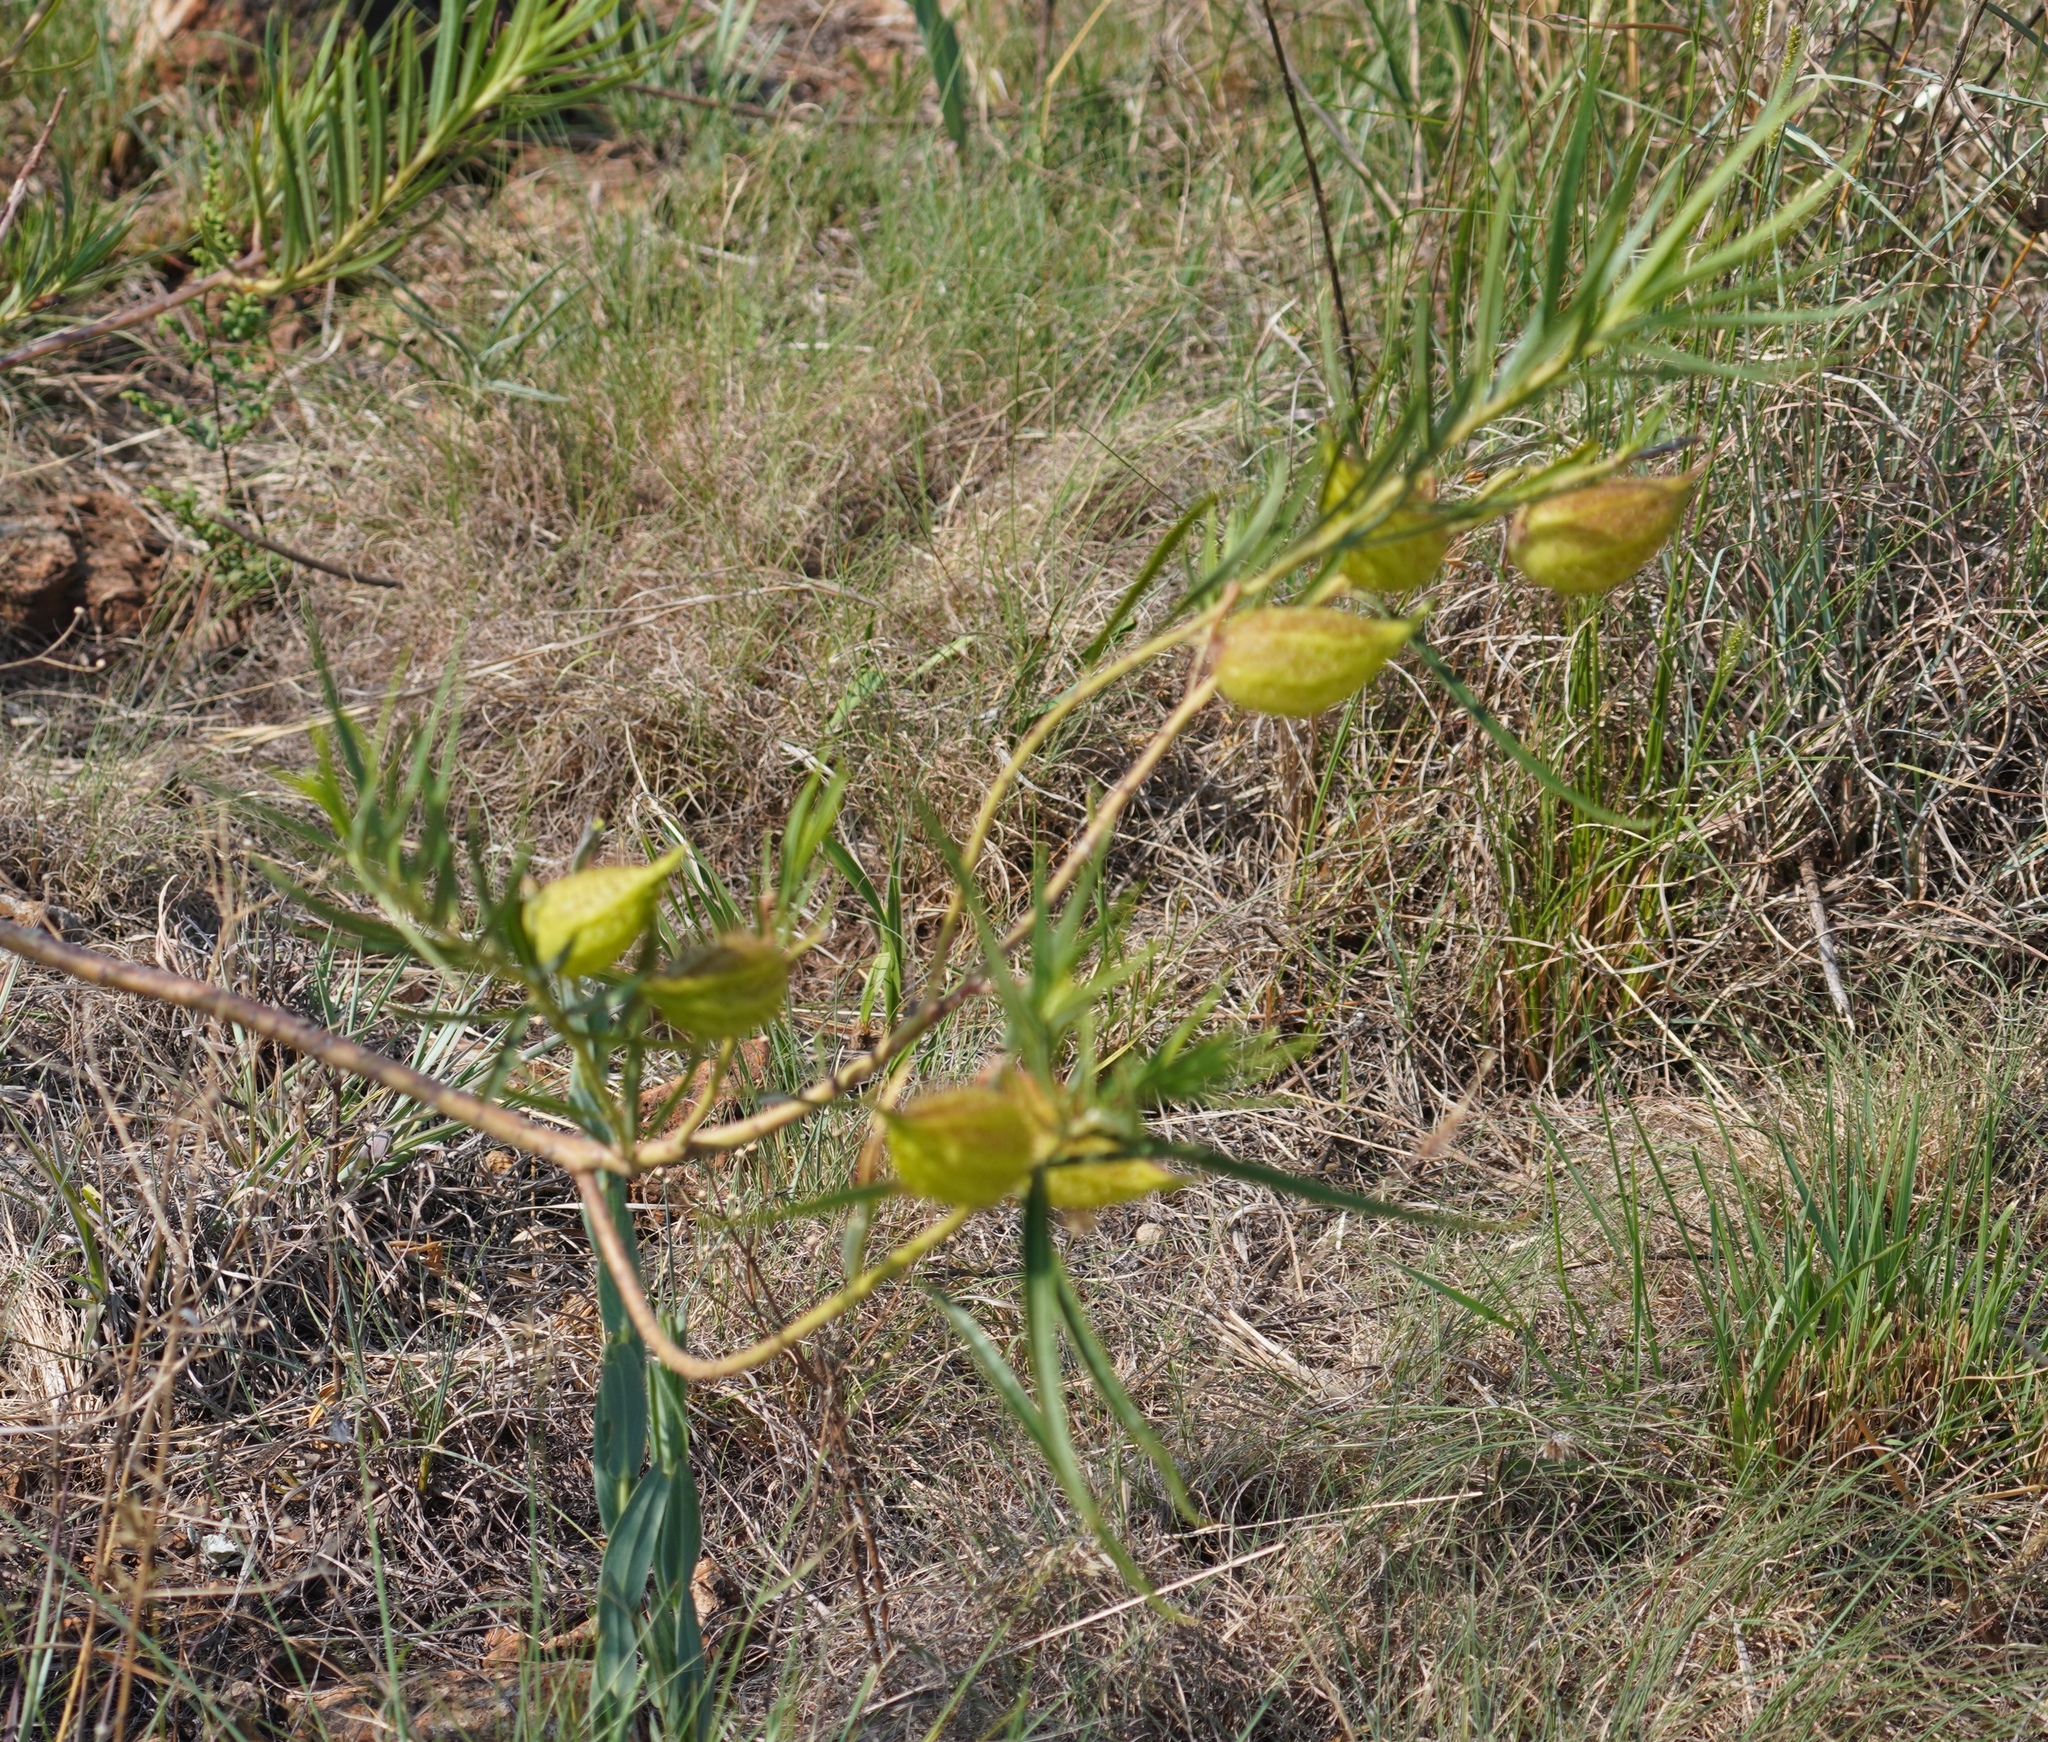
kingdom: Plantae
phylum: Tracheophyta
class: Magnoliopsida
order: Gentianales
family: Apocynaceae
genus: Gomphocarpus
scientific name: Gomphocarpus fruticosus
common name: Milkweed
